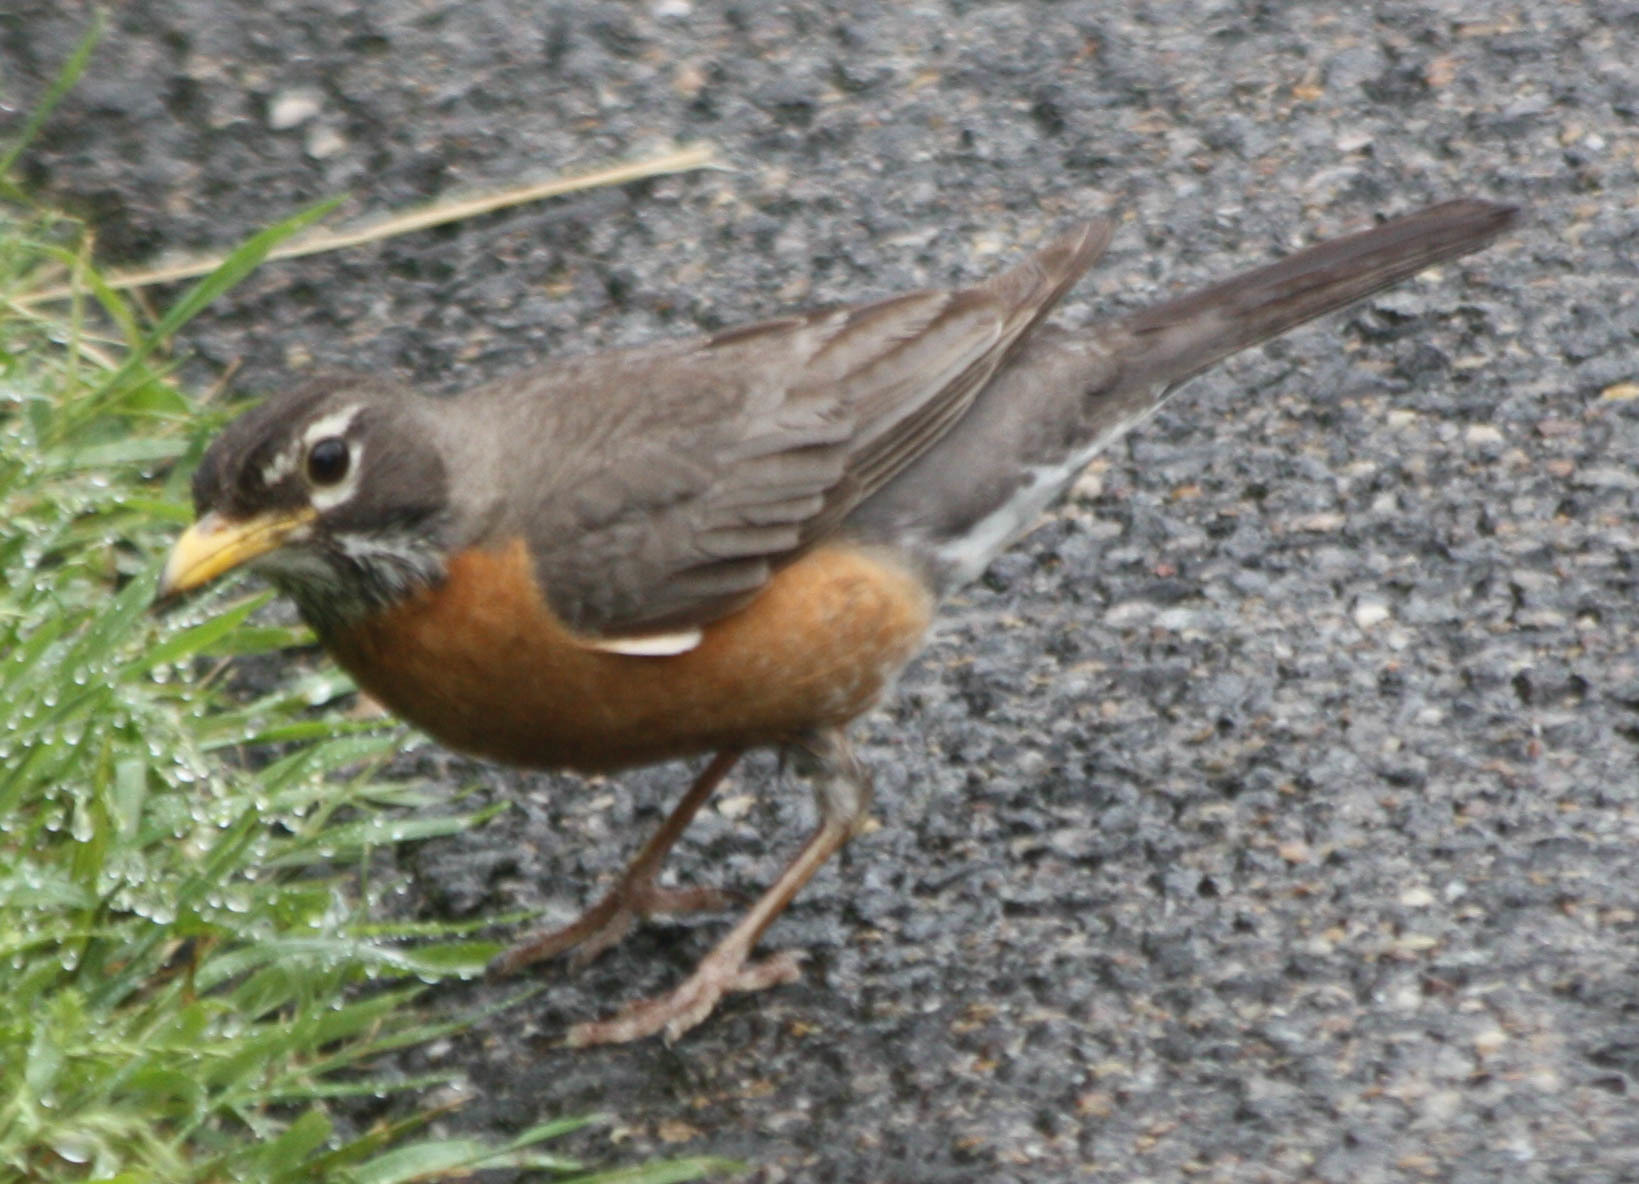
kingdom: Animalia
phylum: Chordata
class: Aves
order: Passeriformes
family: Turdidae
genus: Turdus
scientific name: Turdus migratorius
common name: American robin
